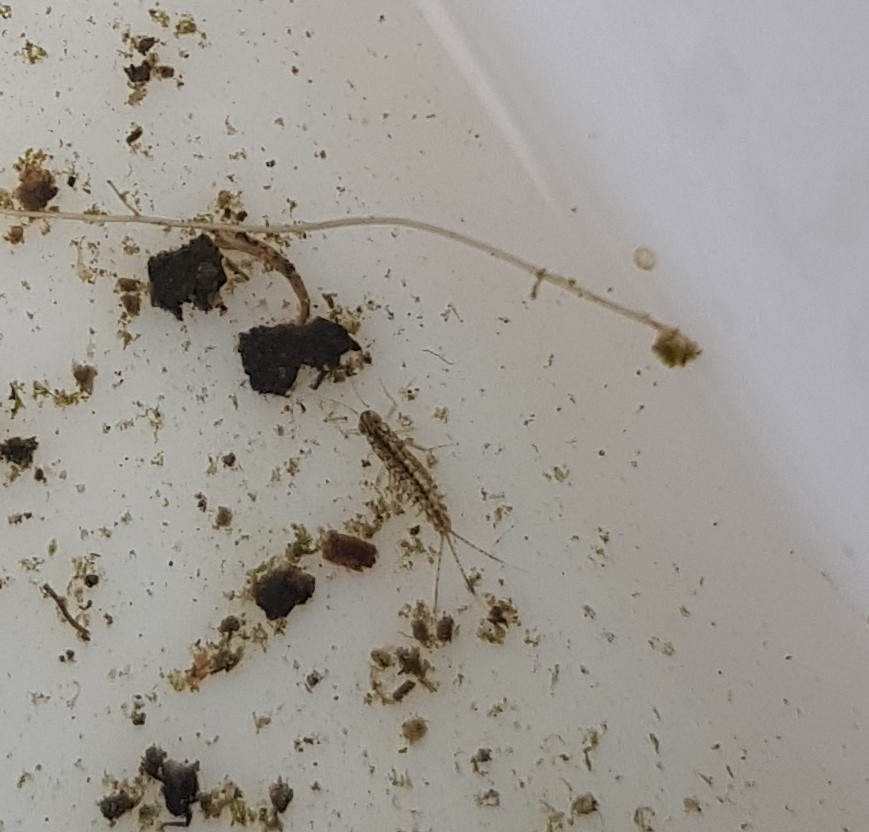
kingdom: Animalia
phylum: Arthropoda
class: Insecta
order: Ephemeroptera
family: Baetidae
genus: Cloeon
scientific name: Cloeon dipterum
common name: Pond olive
